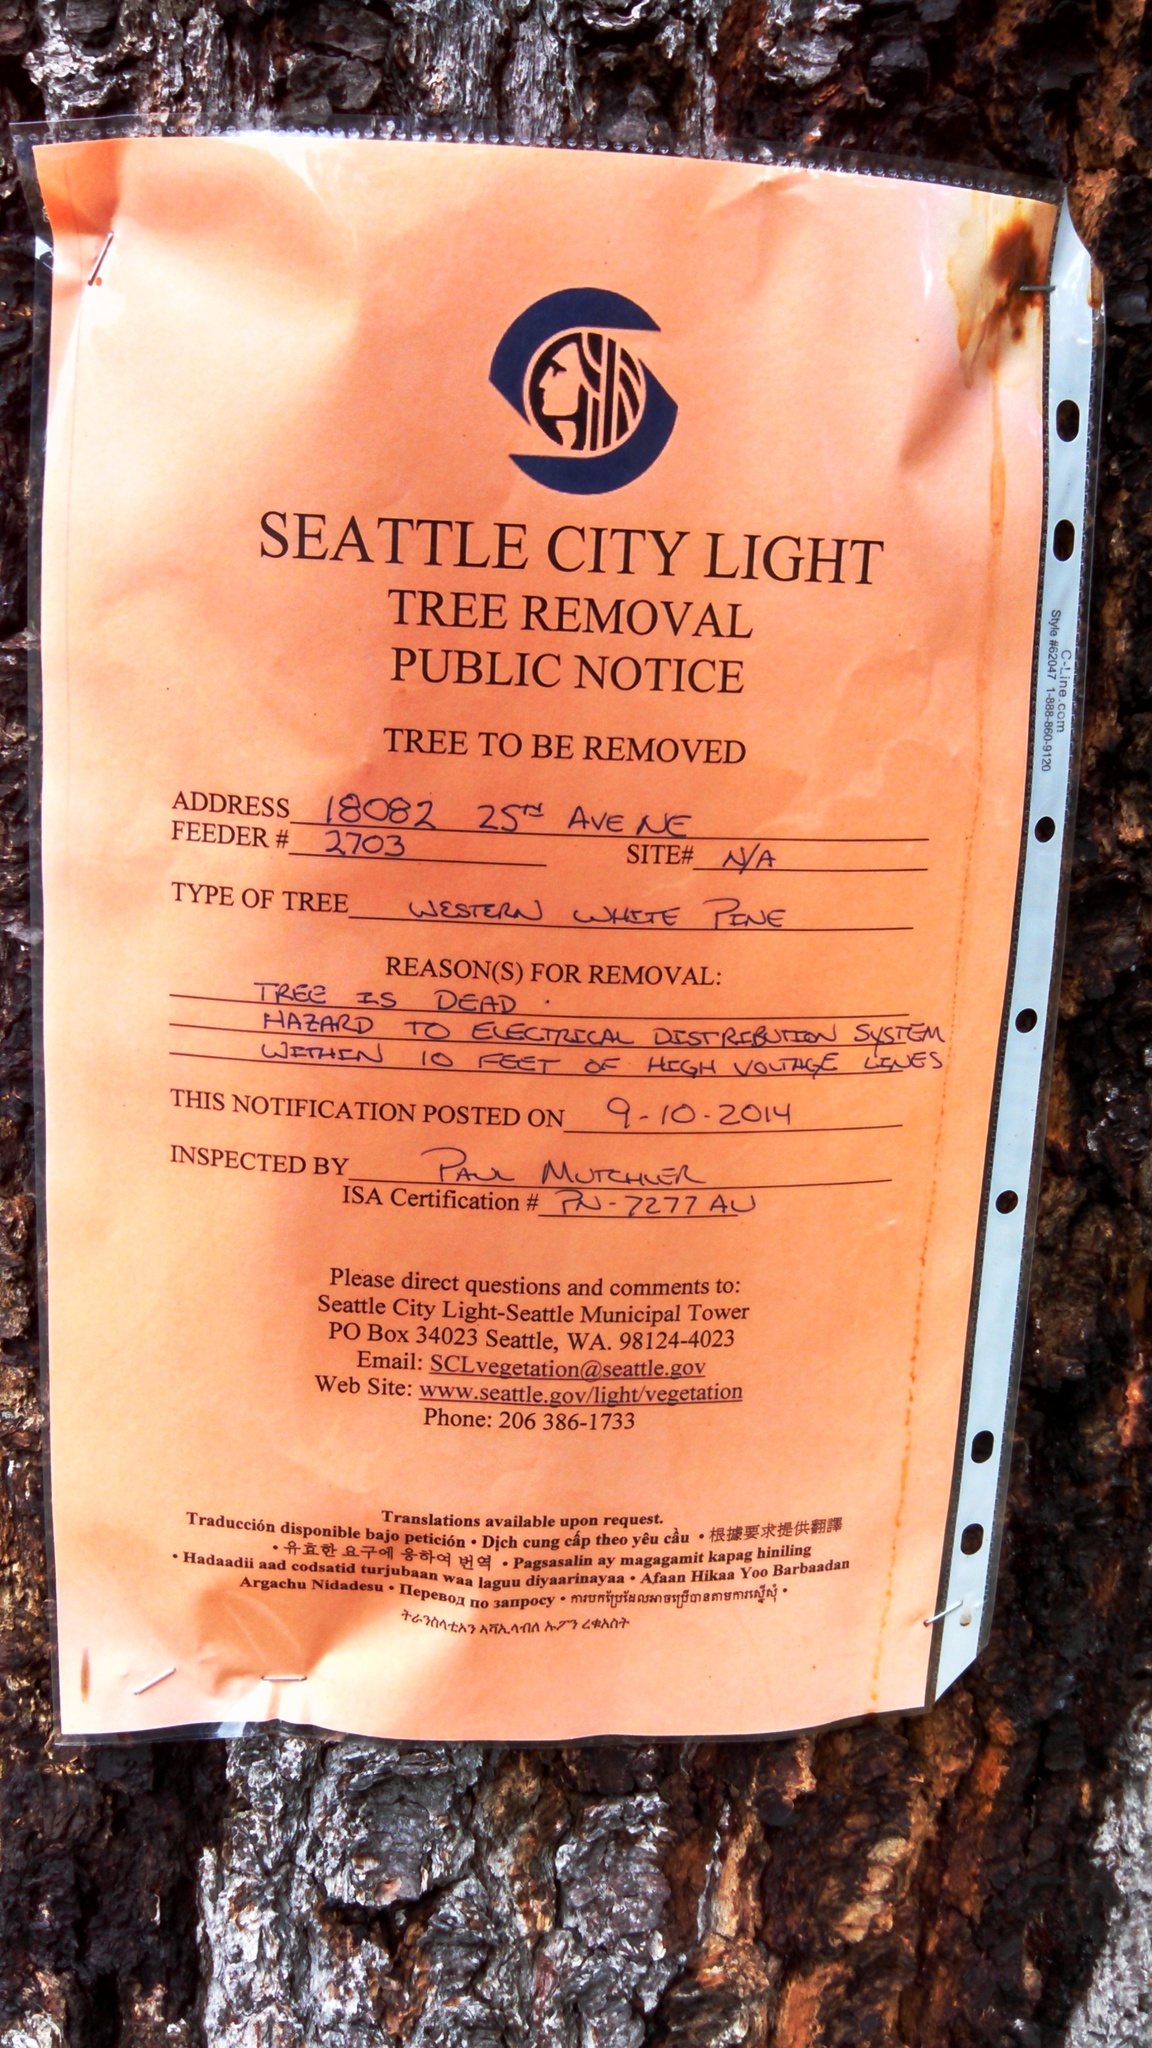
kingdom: Plantae
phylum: Tracheophyta
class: Pinopsida
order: Pinales
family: Pinaceae
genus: Pinus
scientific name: Pinus monticola
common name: Western white pine
